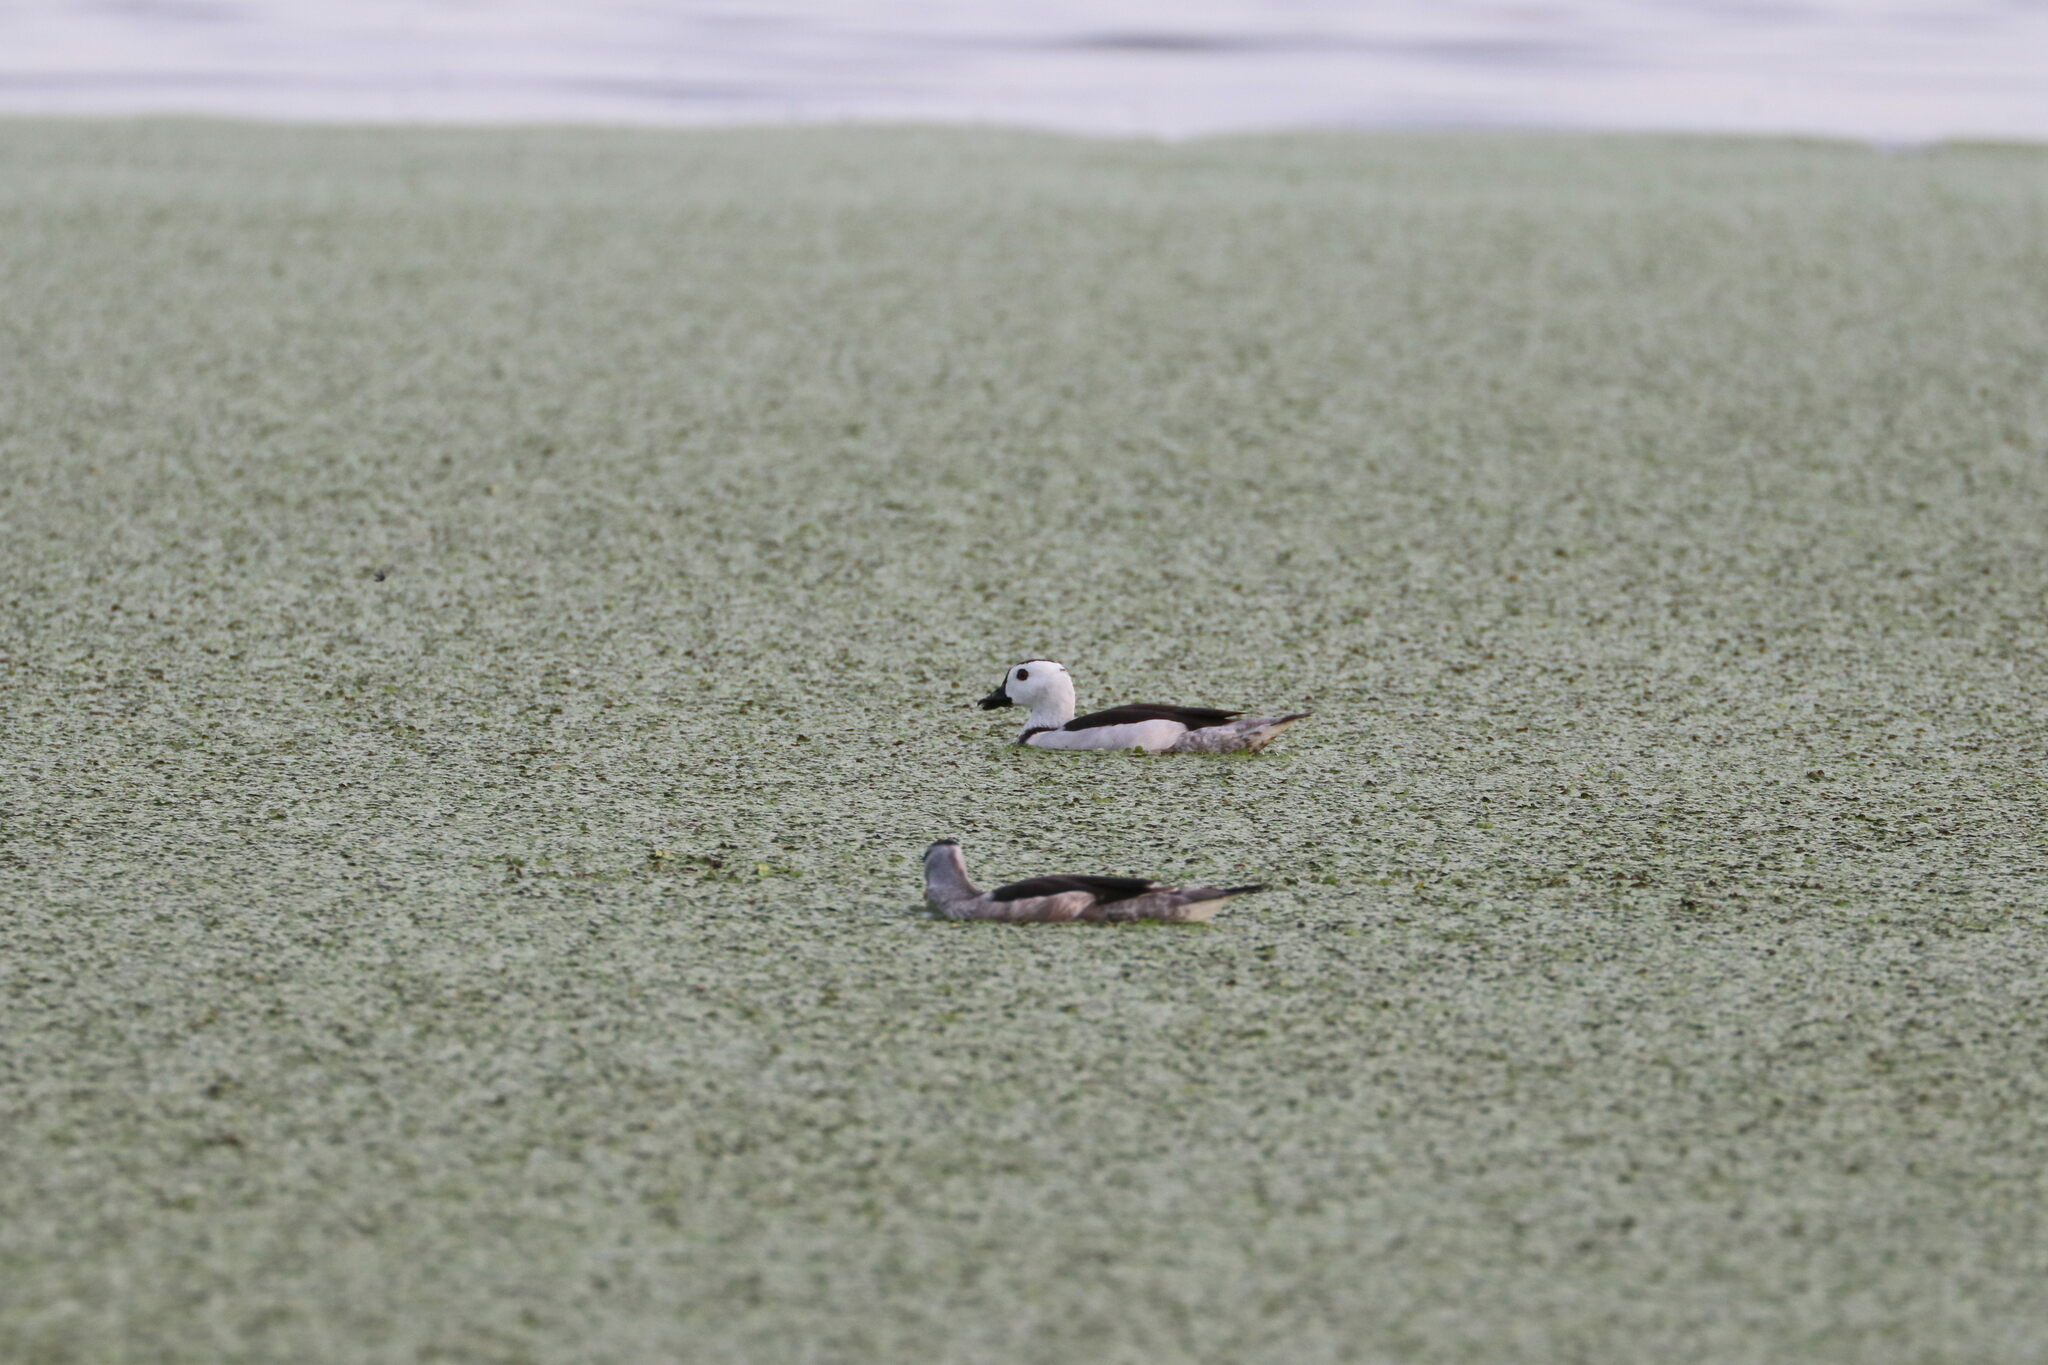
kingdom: Animalia
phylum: Chordata
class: Aves
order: Anseriformes
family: Anatidae
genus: Nettapus
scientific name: Nettapus coromandelianus
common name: Cotton pygmy-goose
